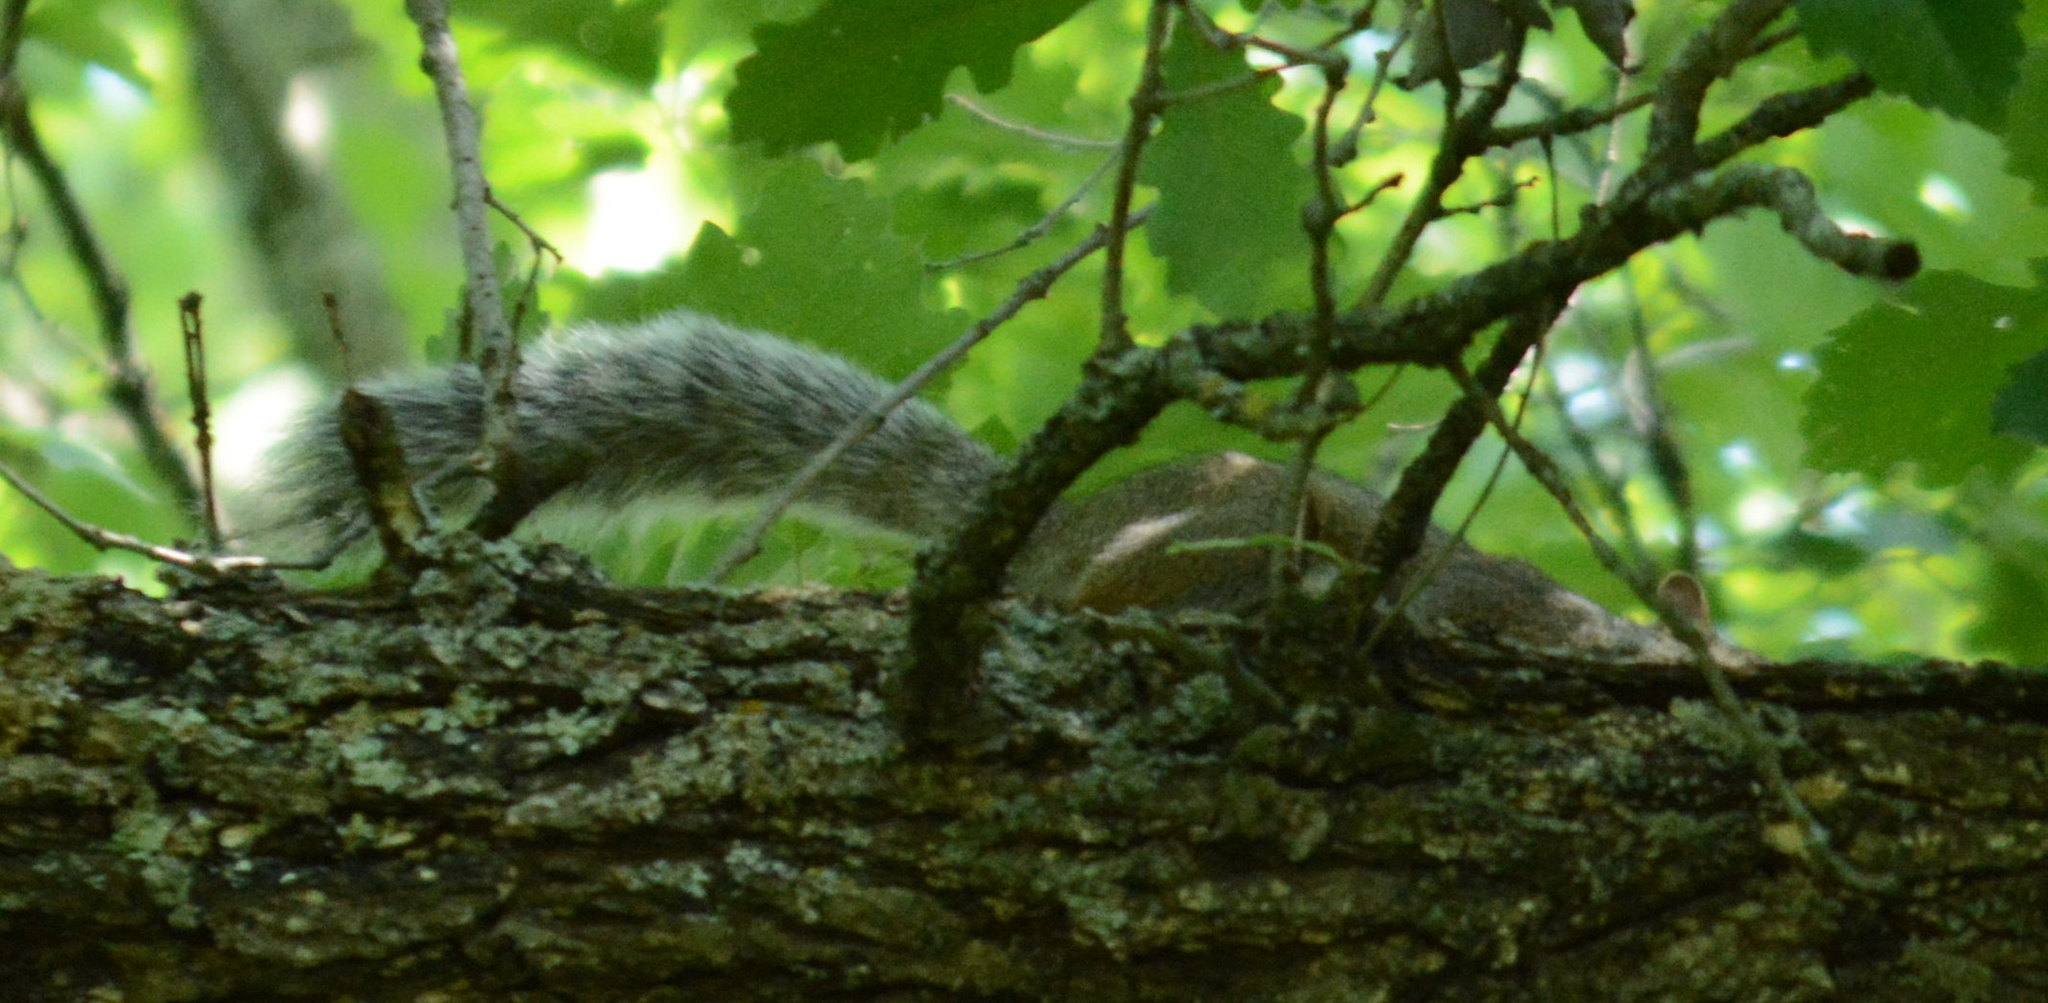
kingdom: Animalia
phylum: Chordata
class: Mammalia
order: Rodentia
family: Sciuridae
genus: Sciurus
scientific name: Sciurus carolinensis
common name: Eastern gray squirrel
